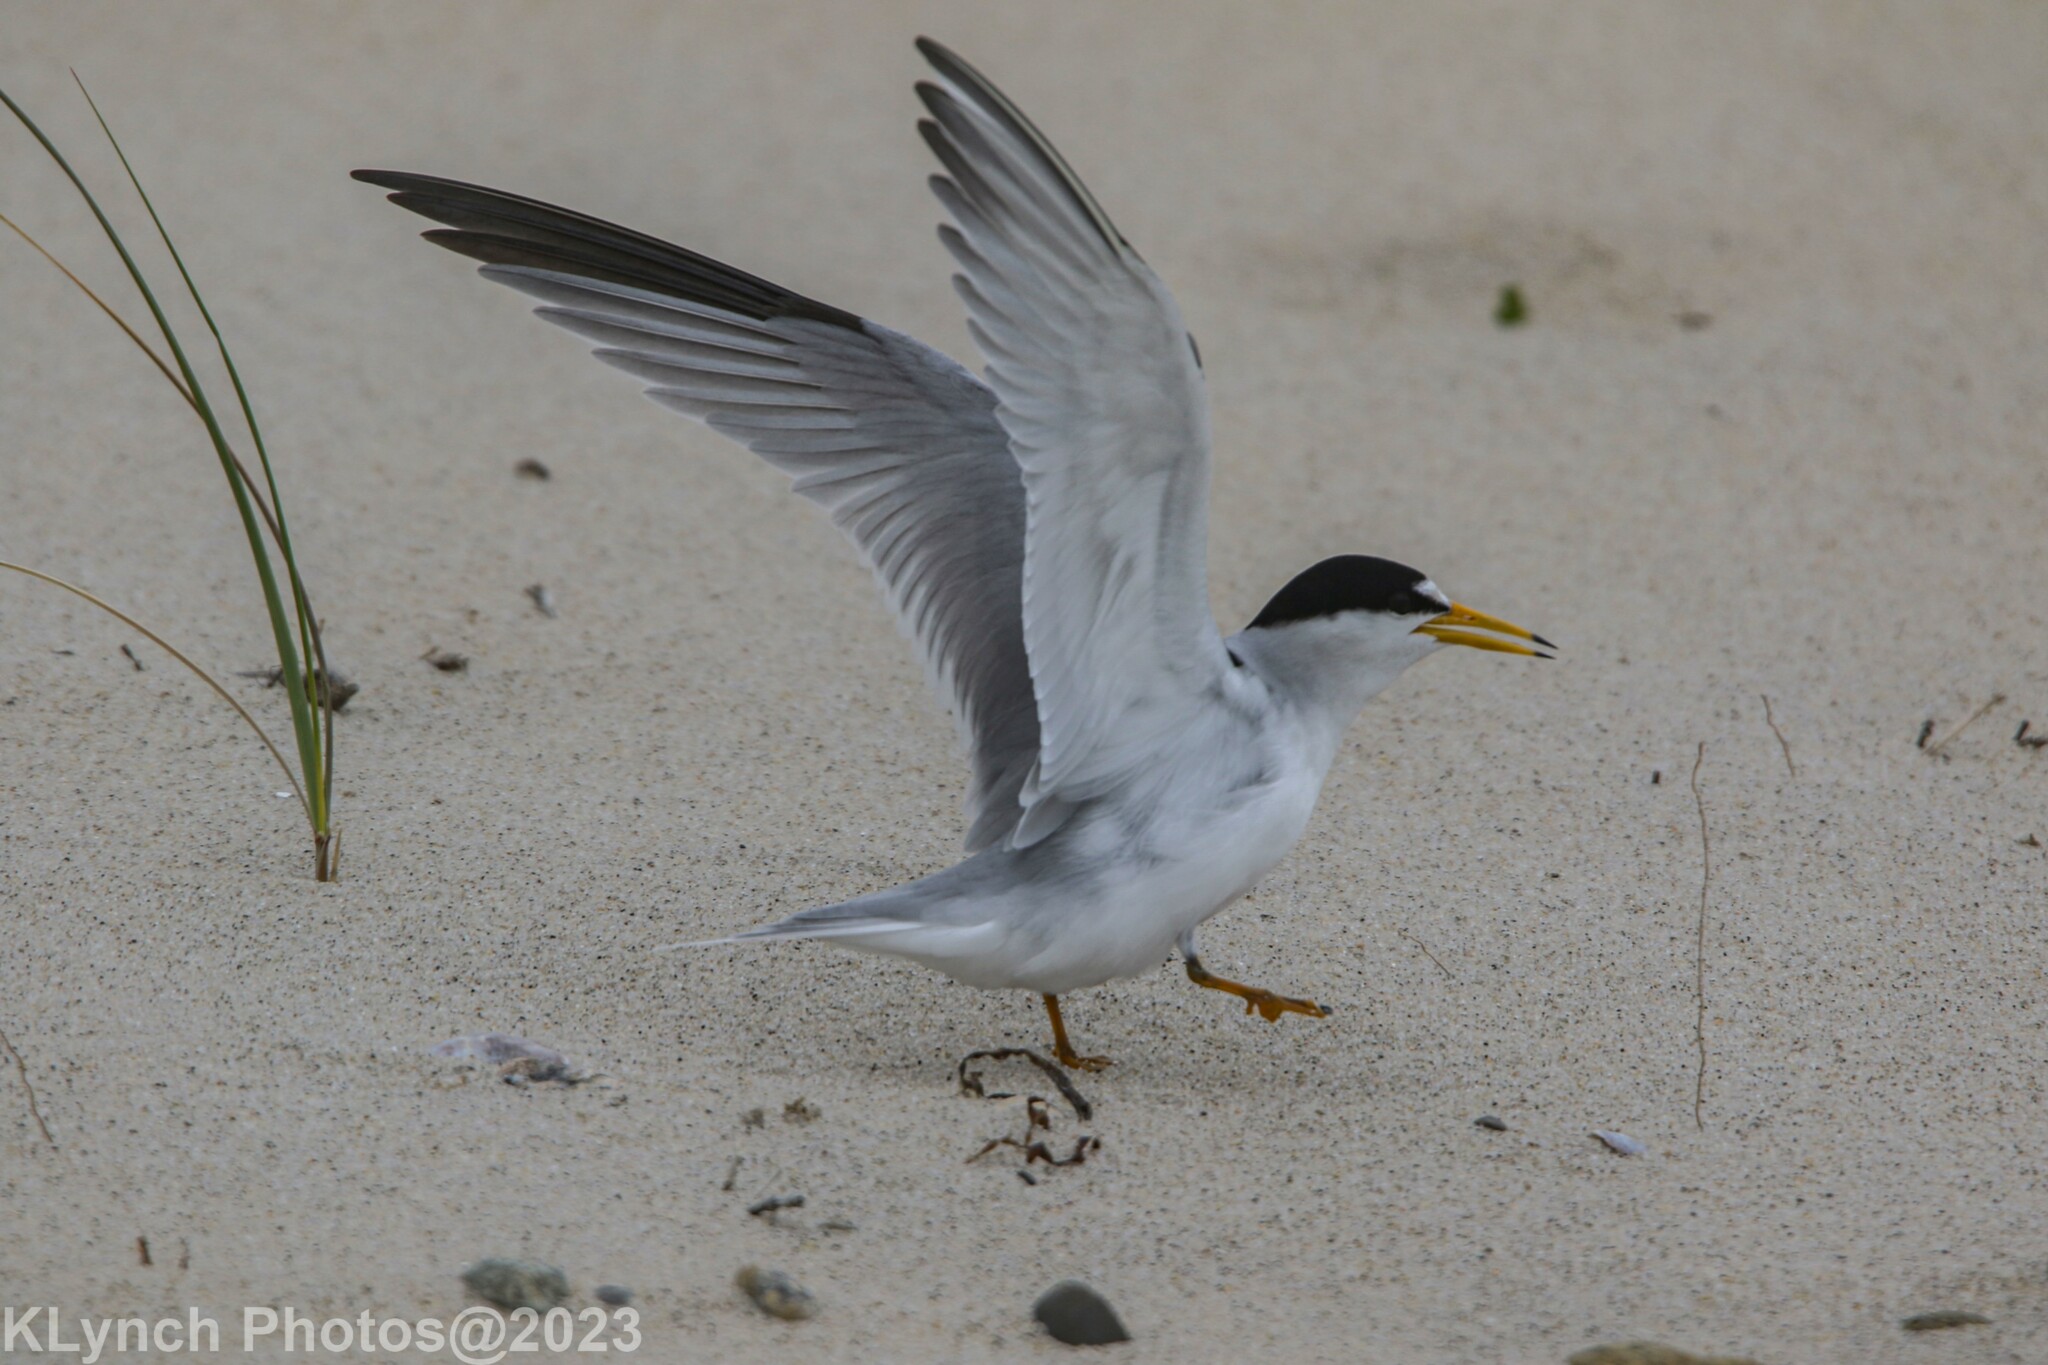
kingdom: Animalia
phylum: Chordata
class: Aves
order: Charadriiformes
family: Laridae
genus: Sternula
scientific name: Sternula antillarum
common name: Least tern
